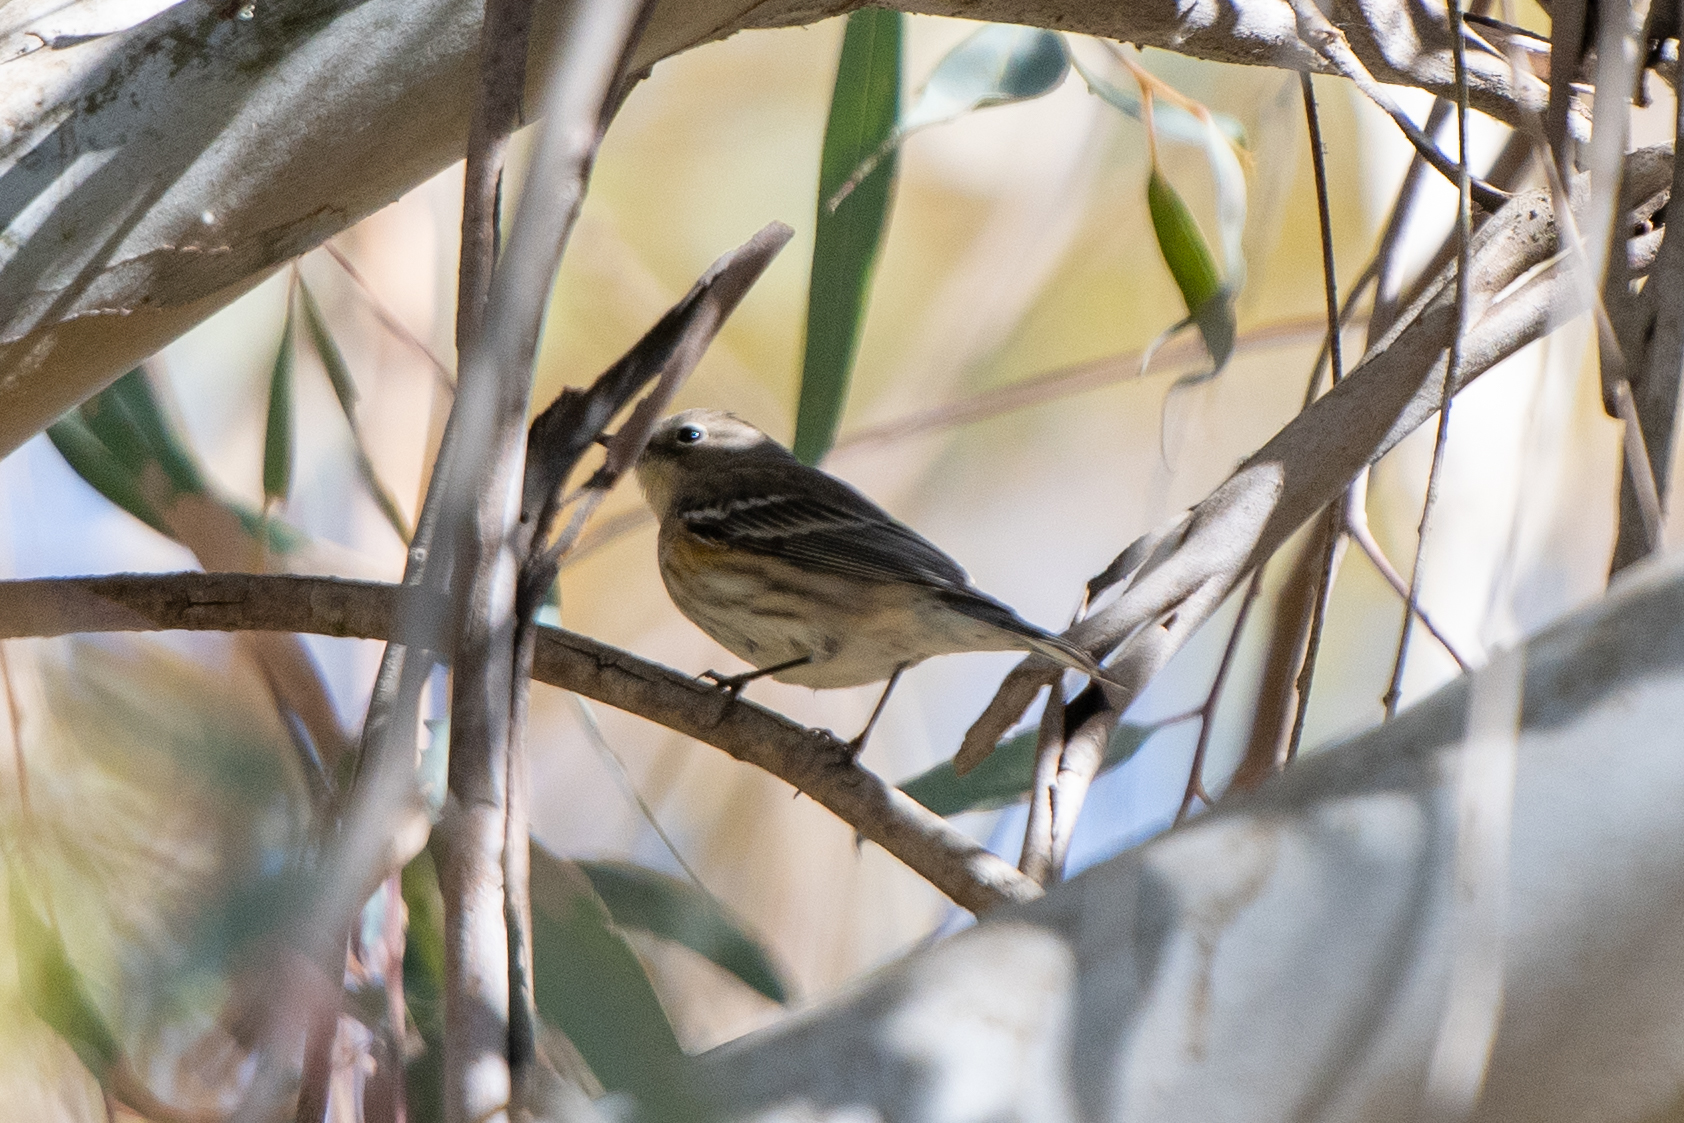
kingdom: Animalia
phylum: Chordata
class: Aves
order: Passeriformes
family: Parulidae
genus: Setophaga
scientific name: Setophaga coronata
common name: Myrtle warbler
